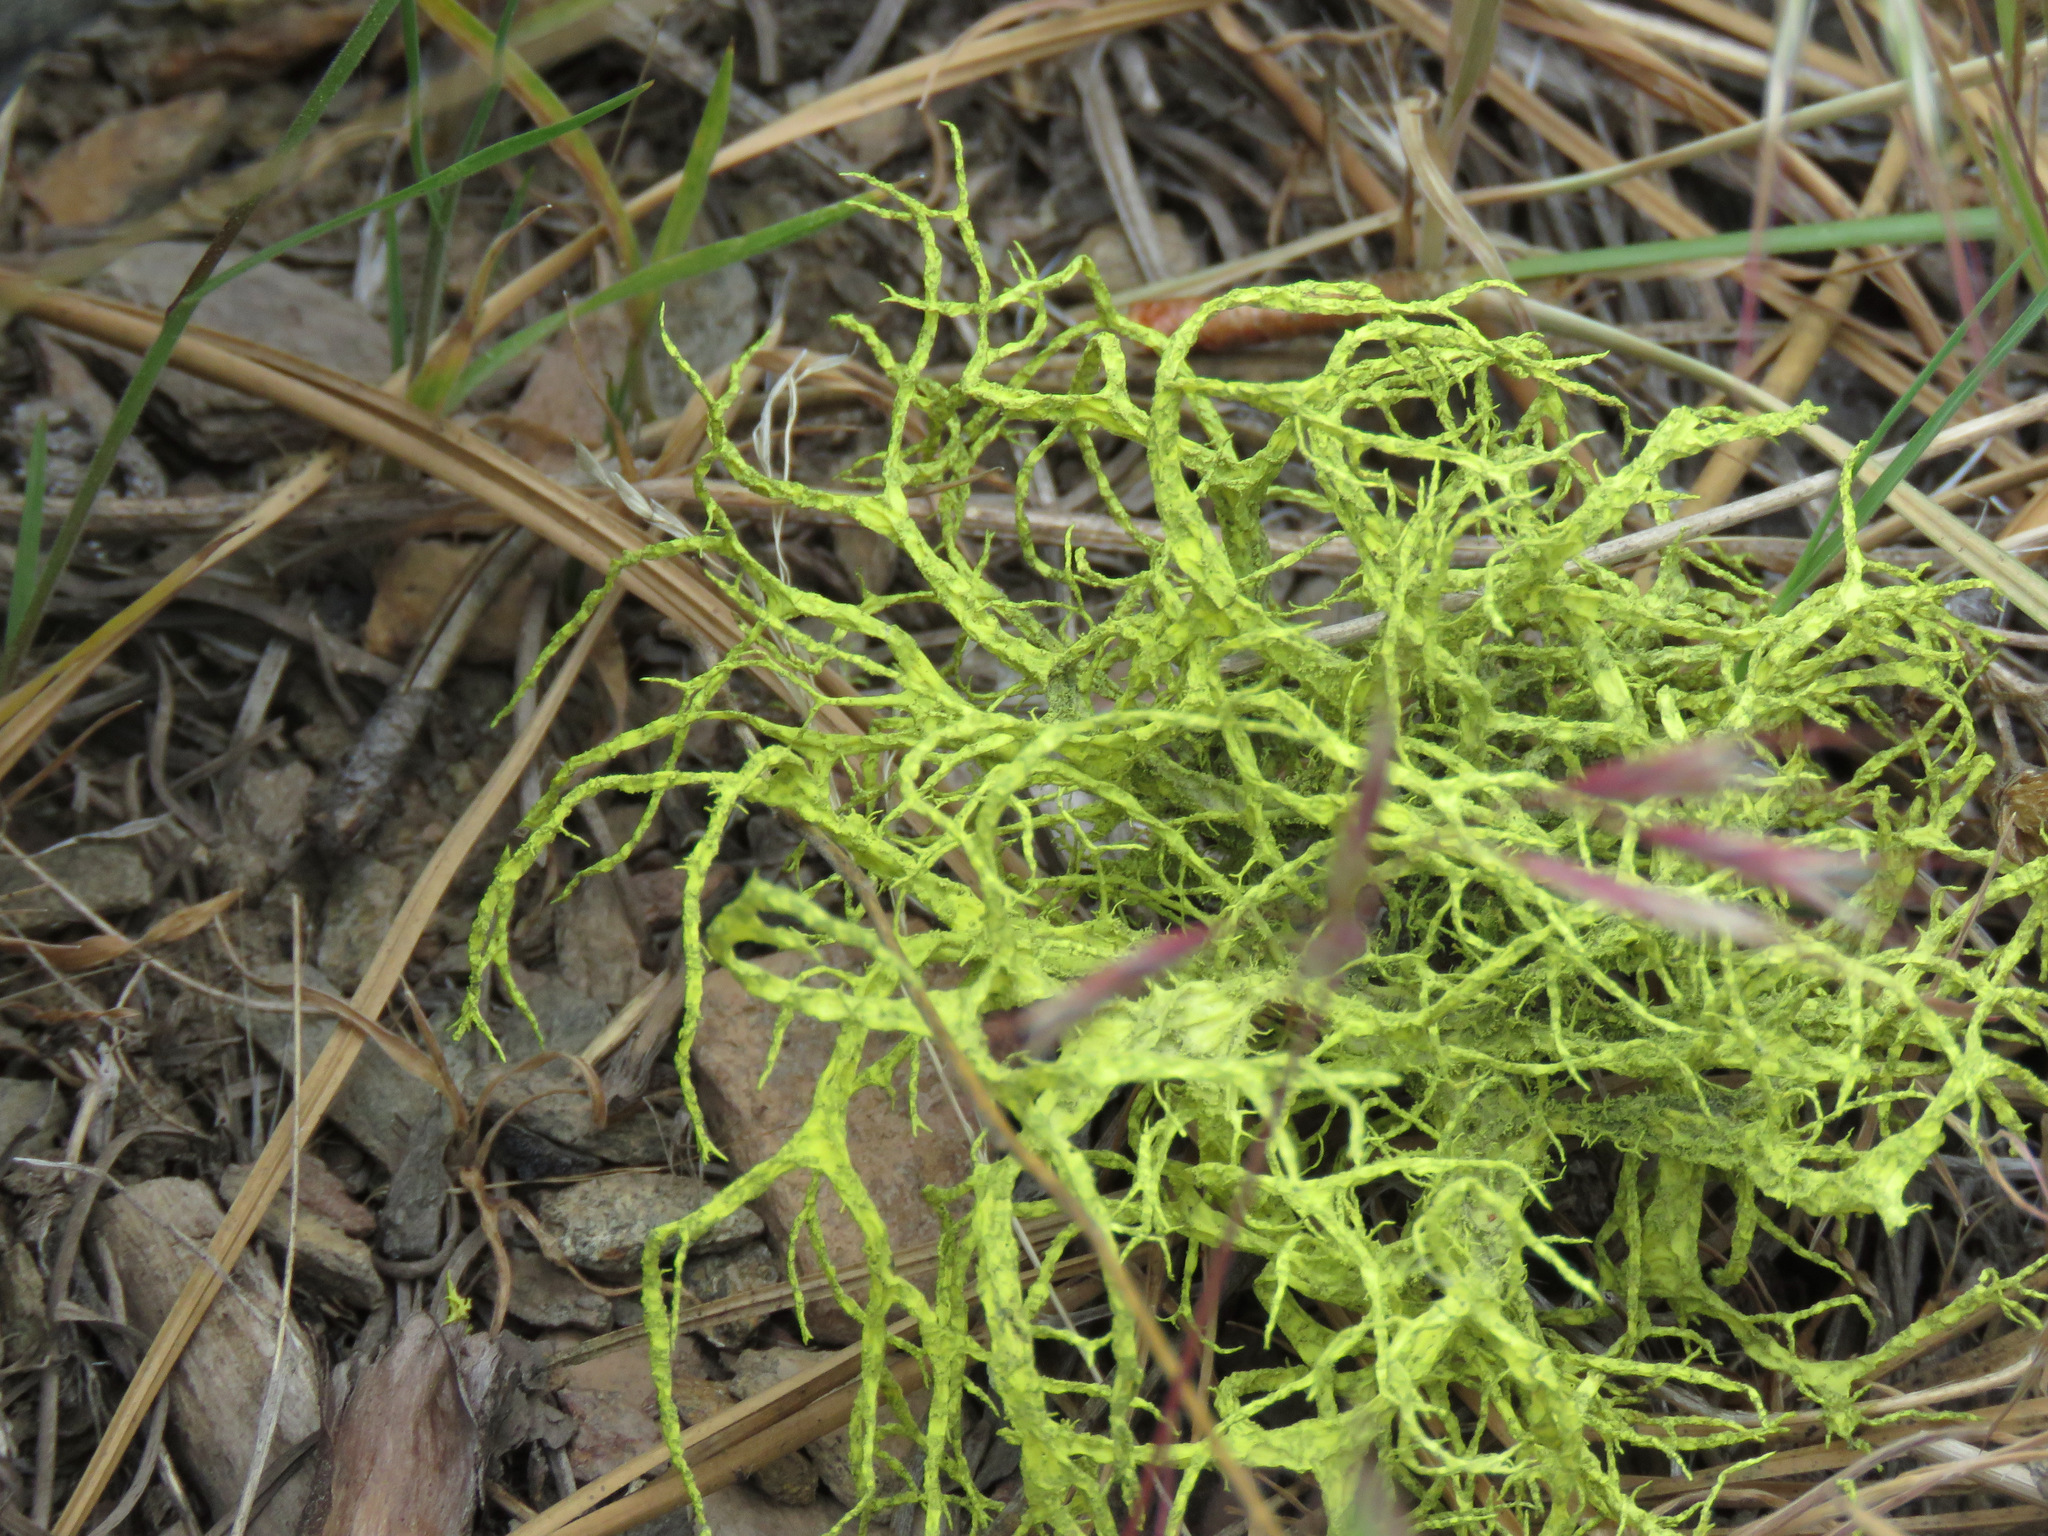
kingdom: Fungi
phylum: Ascomycota
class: Lecanoromycetes
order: Lecanorales
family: Parmeliaceae
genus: Letharia
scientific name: Letharia vulpina
